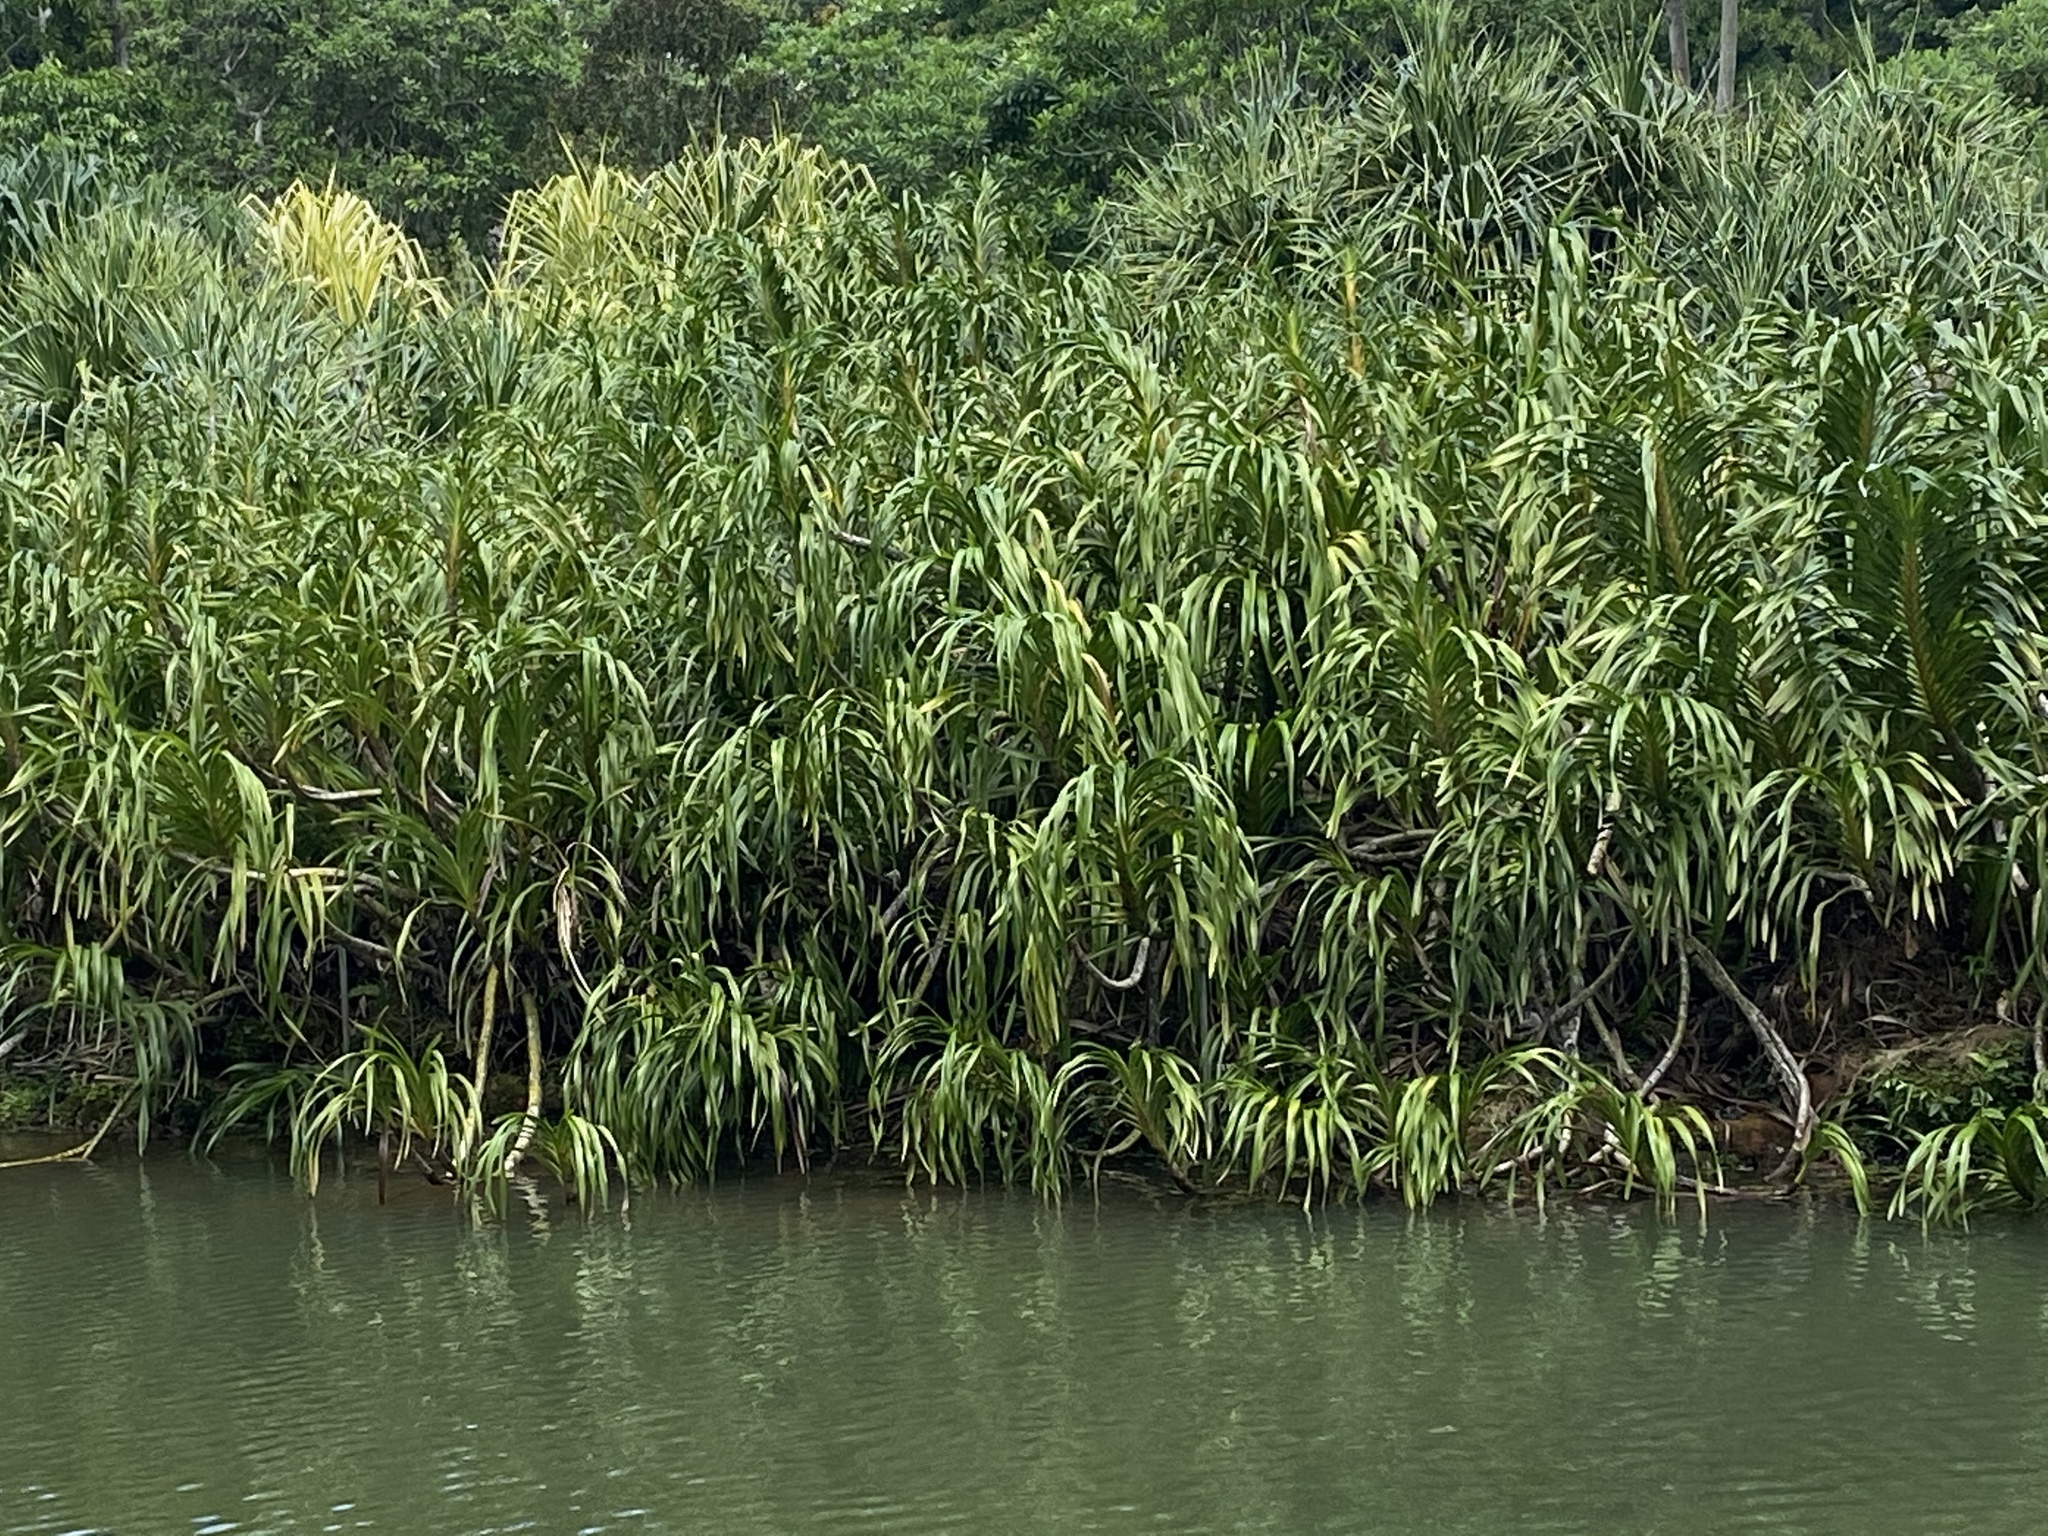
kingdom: Plantae
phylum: Tracheophyta
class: Liliopsida
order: Asparagales
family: Orchidaceae
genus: Grammatophyllum
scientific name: Grammatophyllum speciosum
